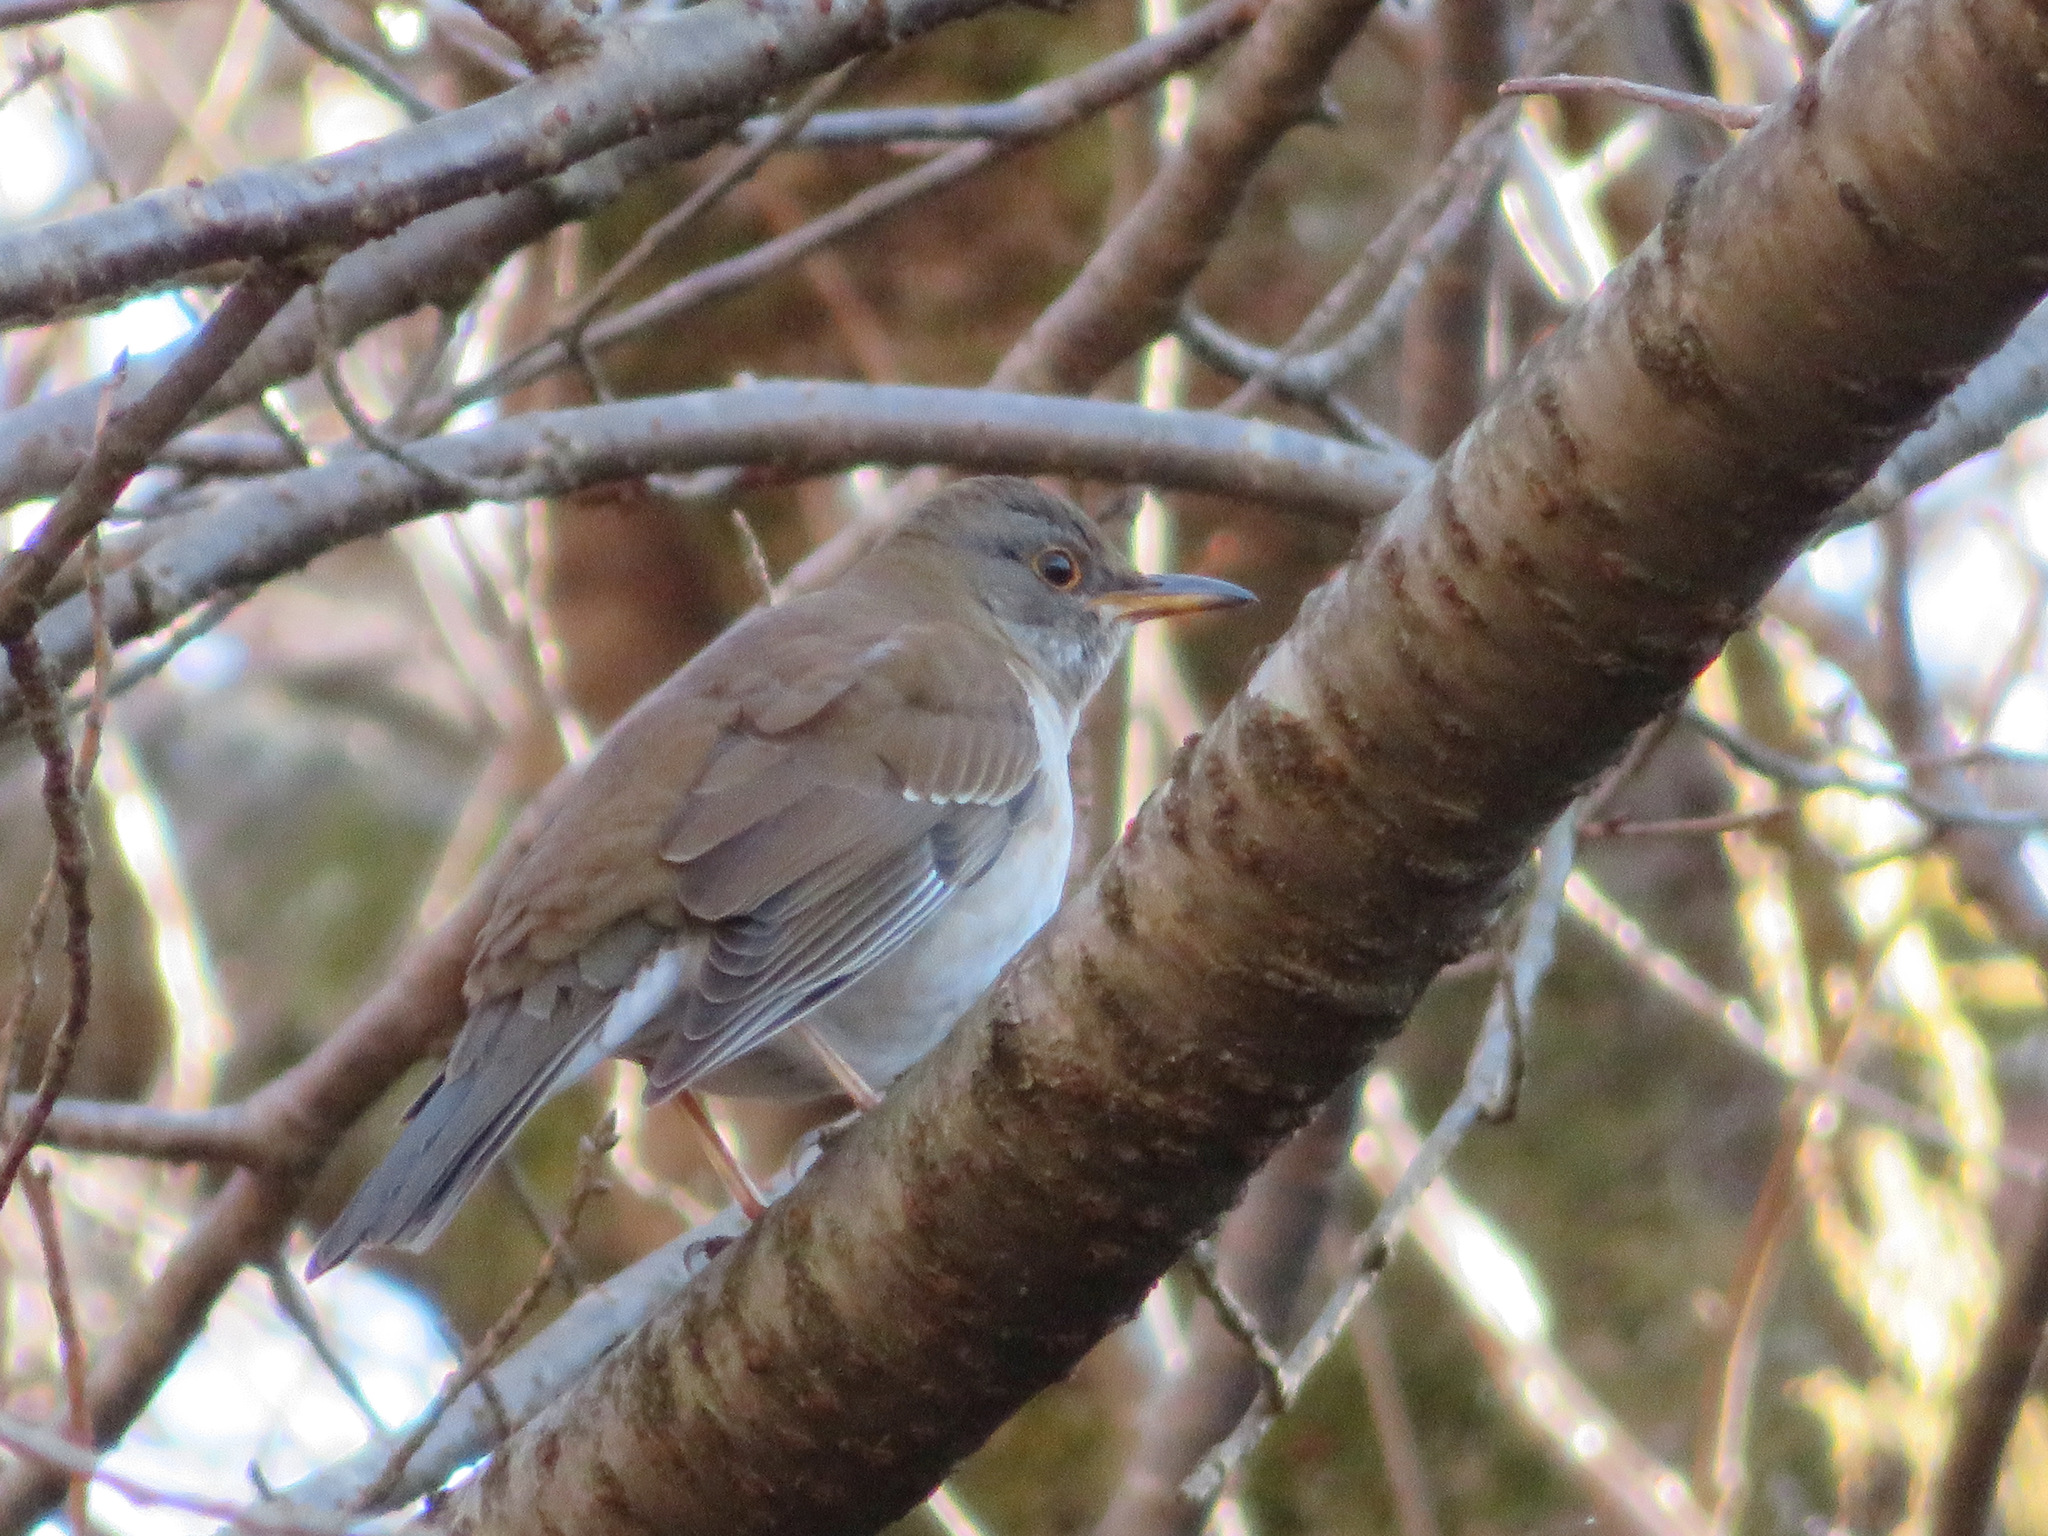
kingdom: Animalia
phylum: Chordata
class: Aves
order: Passeriformes
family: Turdidae
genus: Turdus
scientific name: Turdus pallidus
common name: Pale thrush
